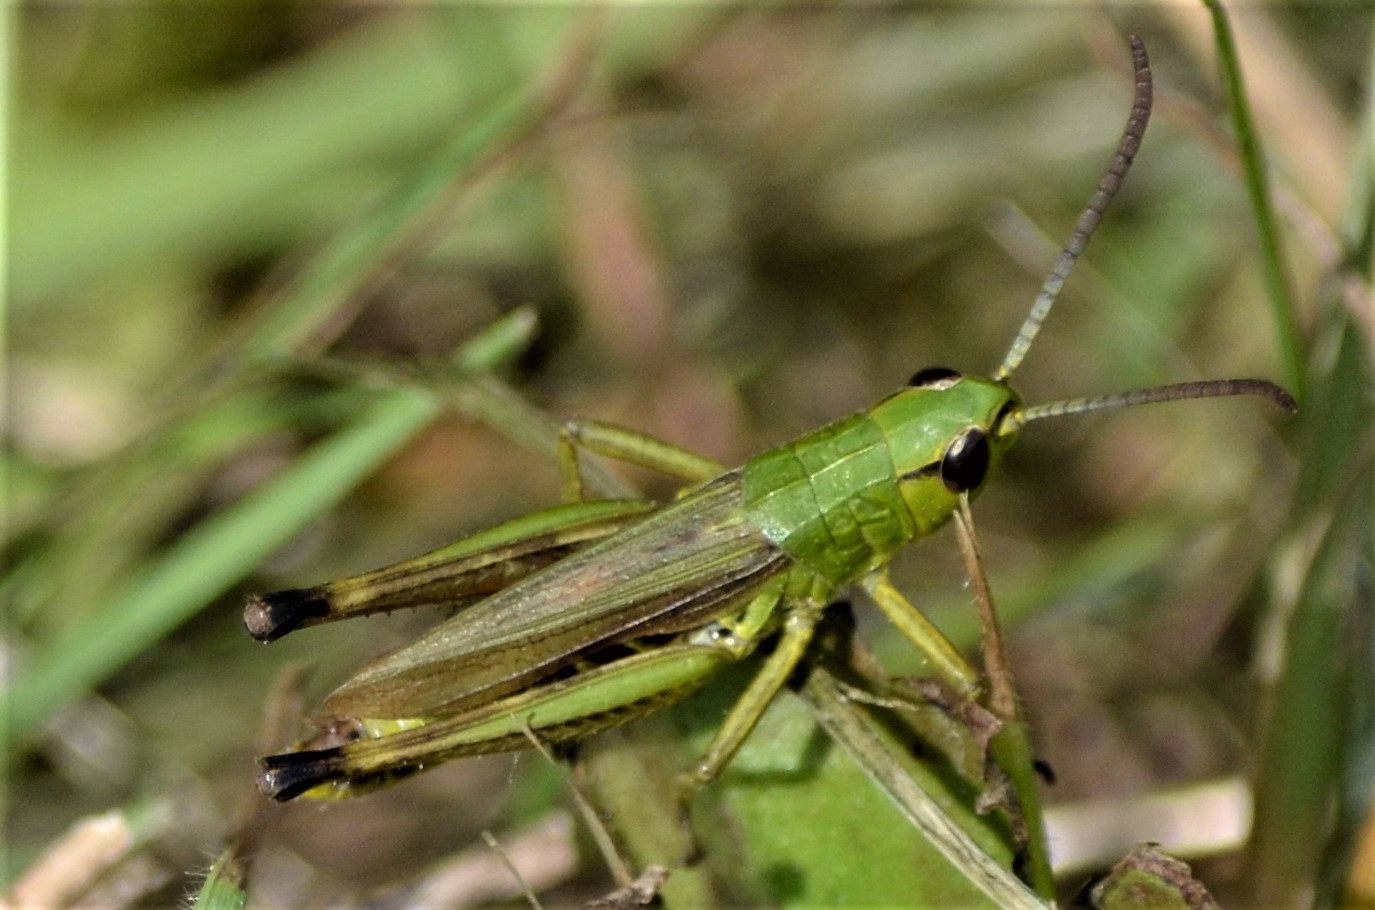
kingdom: Animalia
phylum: Arthropoda
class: Insecta
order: Orthoptera
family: Acrididae
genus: Pseudochorthippus
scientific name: Pseudochorthippus parallelus
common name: Meadow grasshopper
